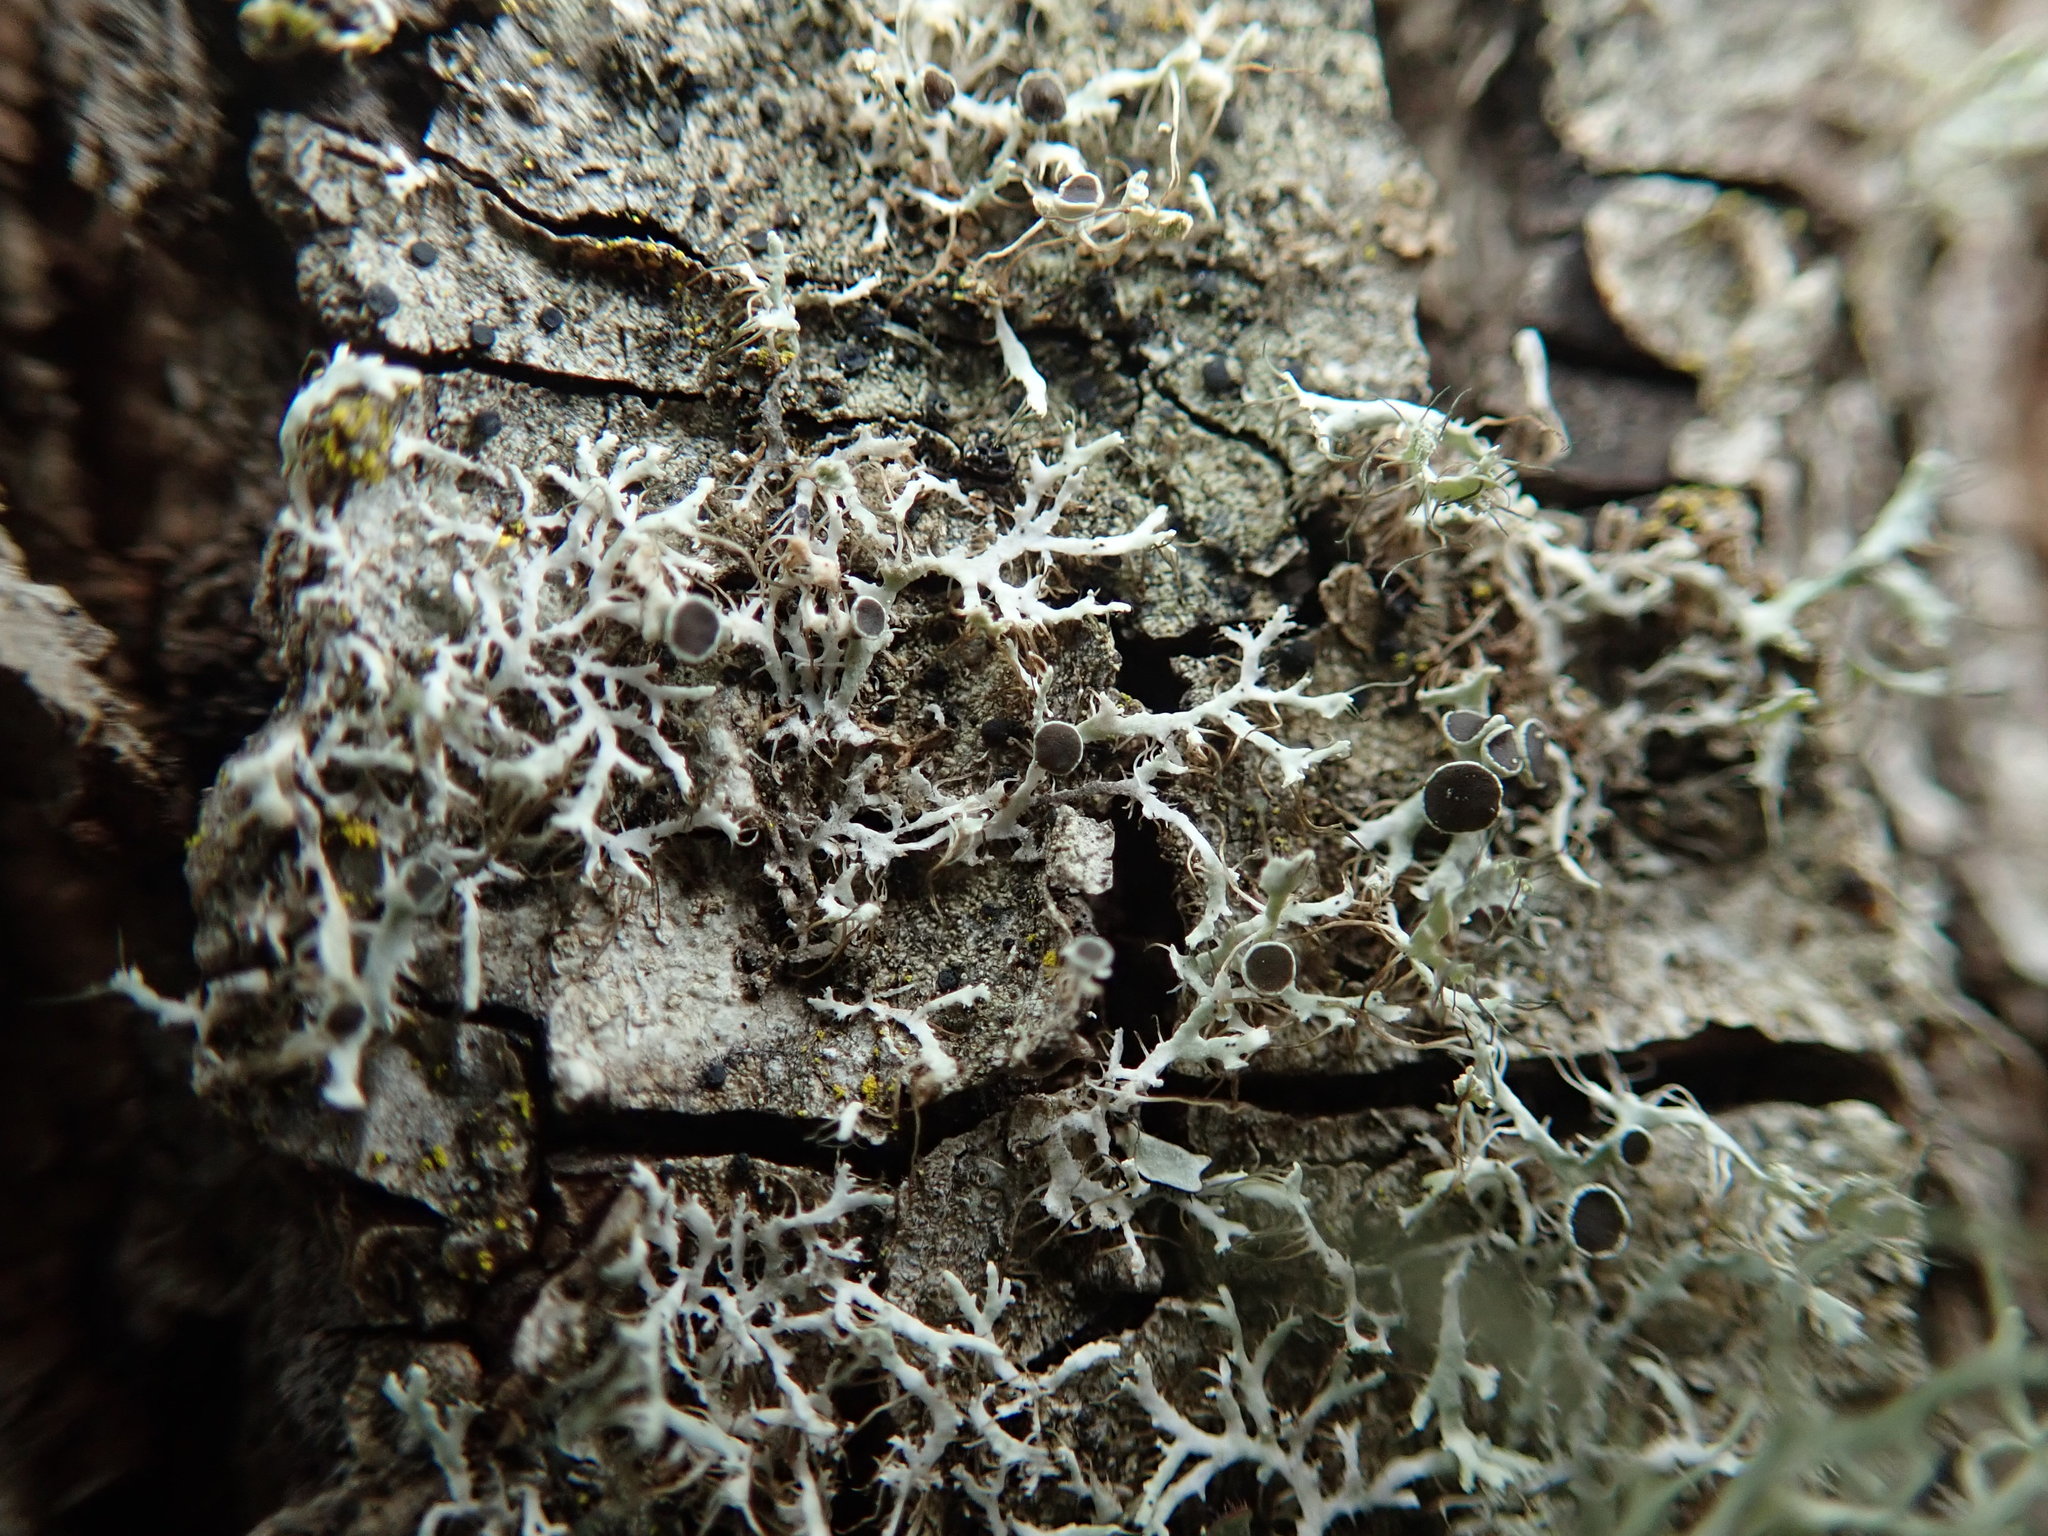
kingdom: Fungi
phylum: Ascomycota
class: Lecanoromycetes
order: Caliciales
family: Physciaceae
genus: Physcia
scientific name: Physcia tenella
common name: Fringed rosette lichen
